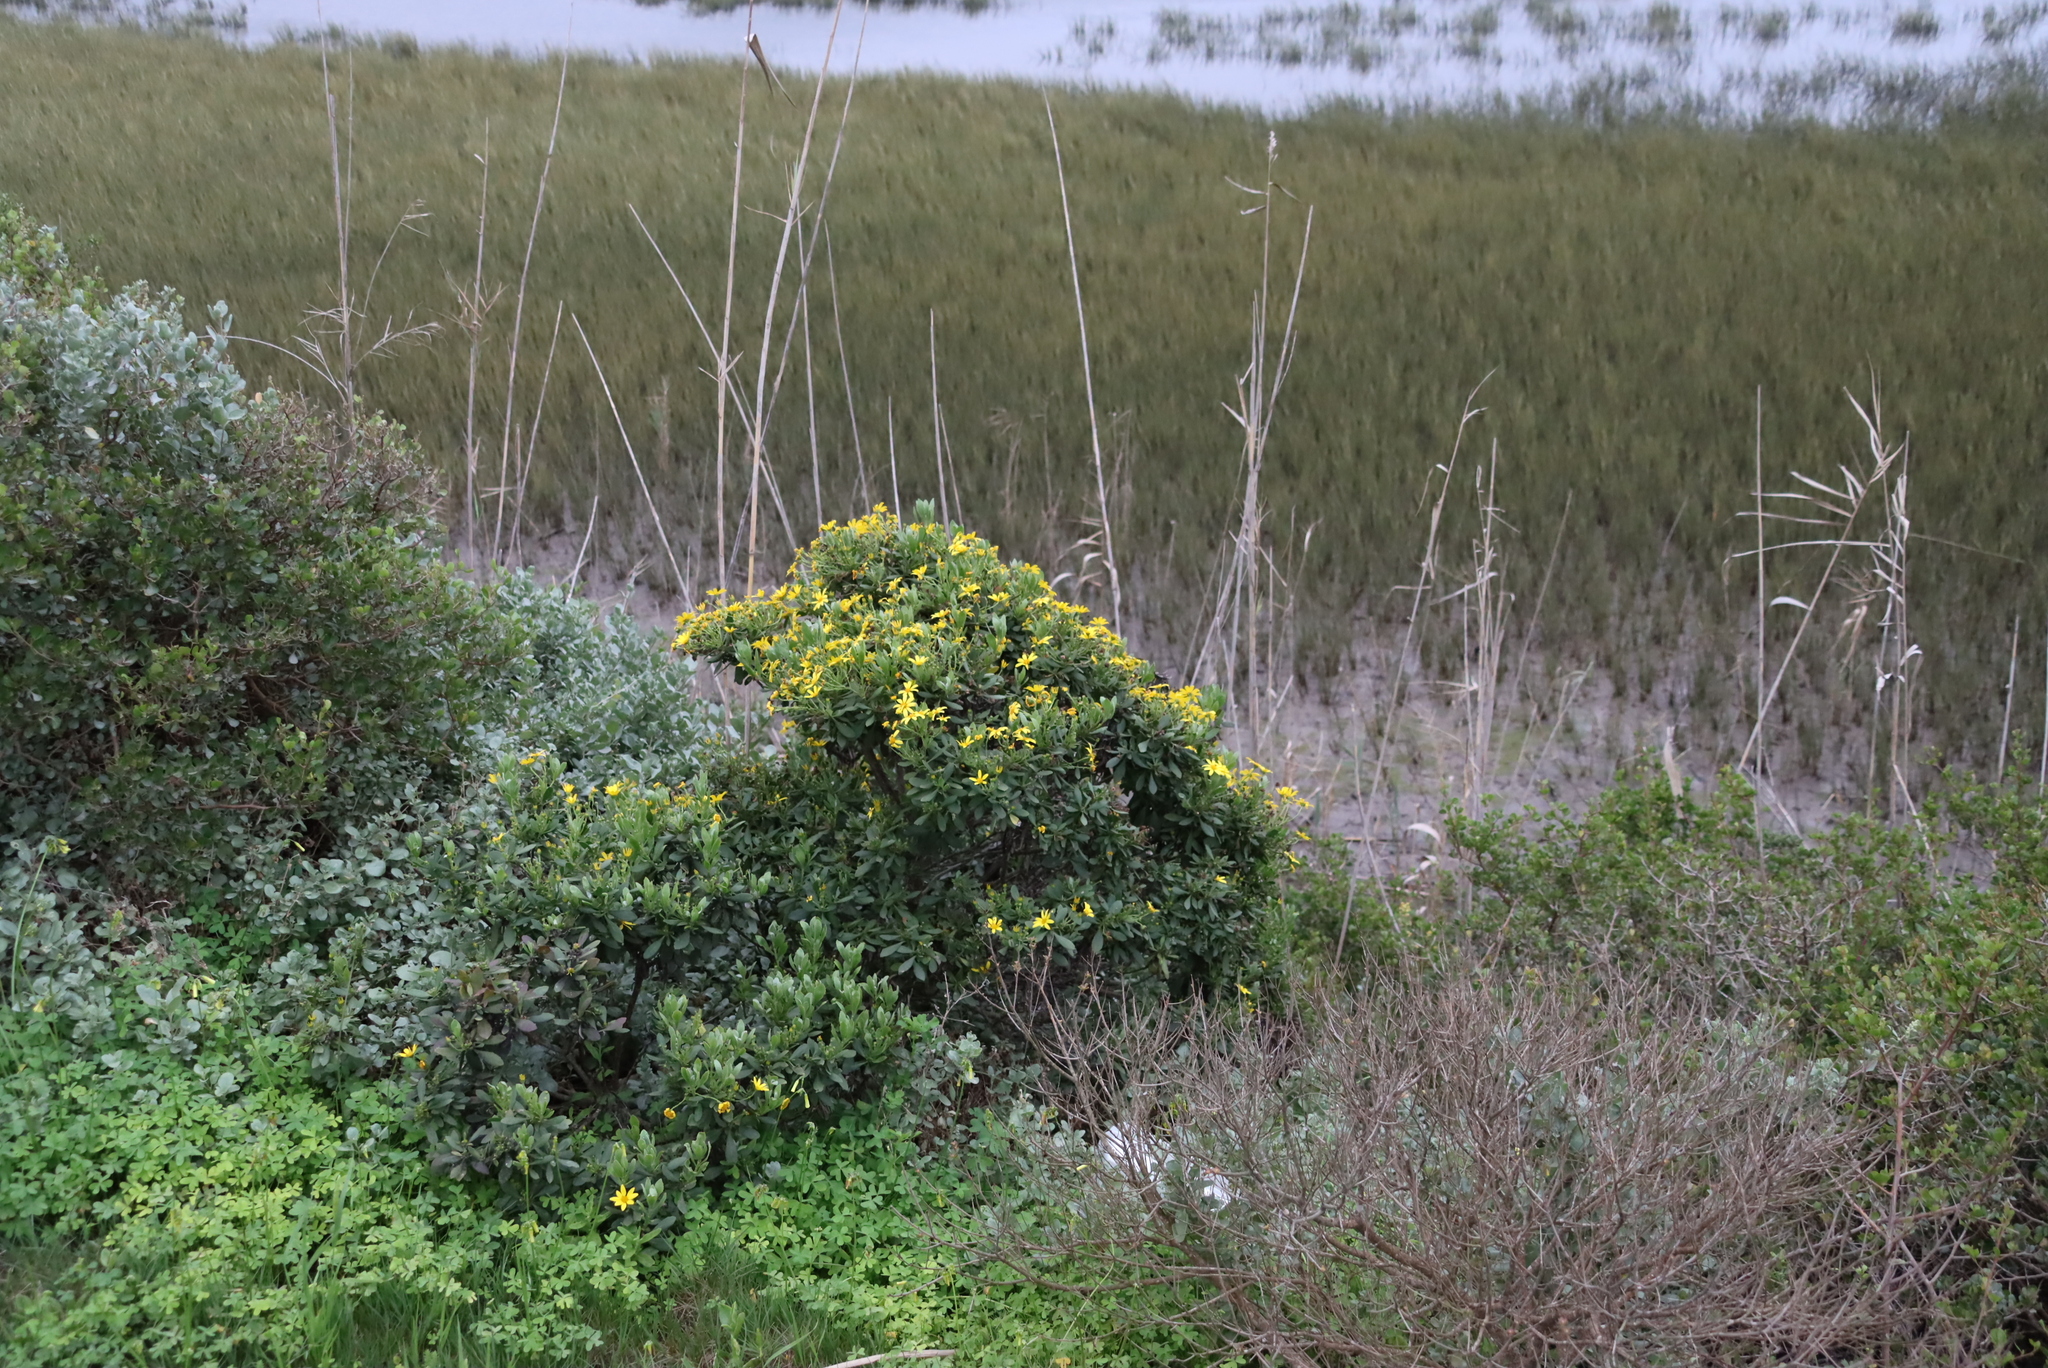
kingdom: Plantae
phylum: Tracheophyta
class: Magnoliopsida
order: Asterales
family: Asteraceae
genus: Osteospermum
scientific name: Osteospermum moniliferum
